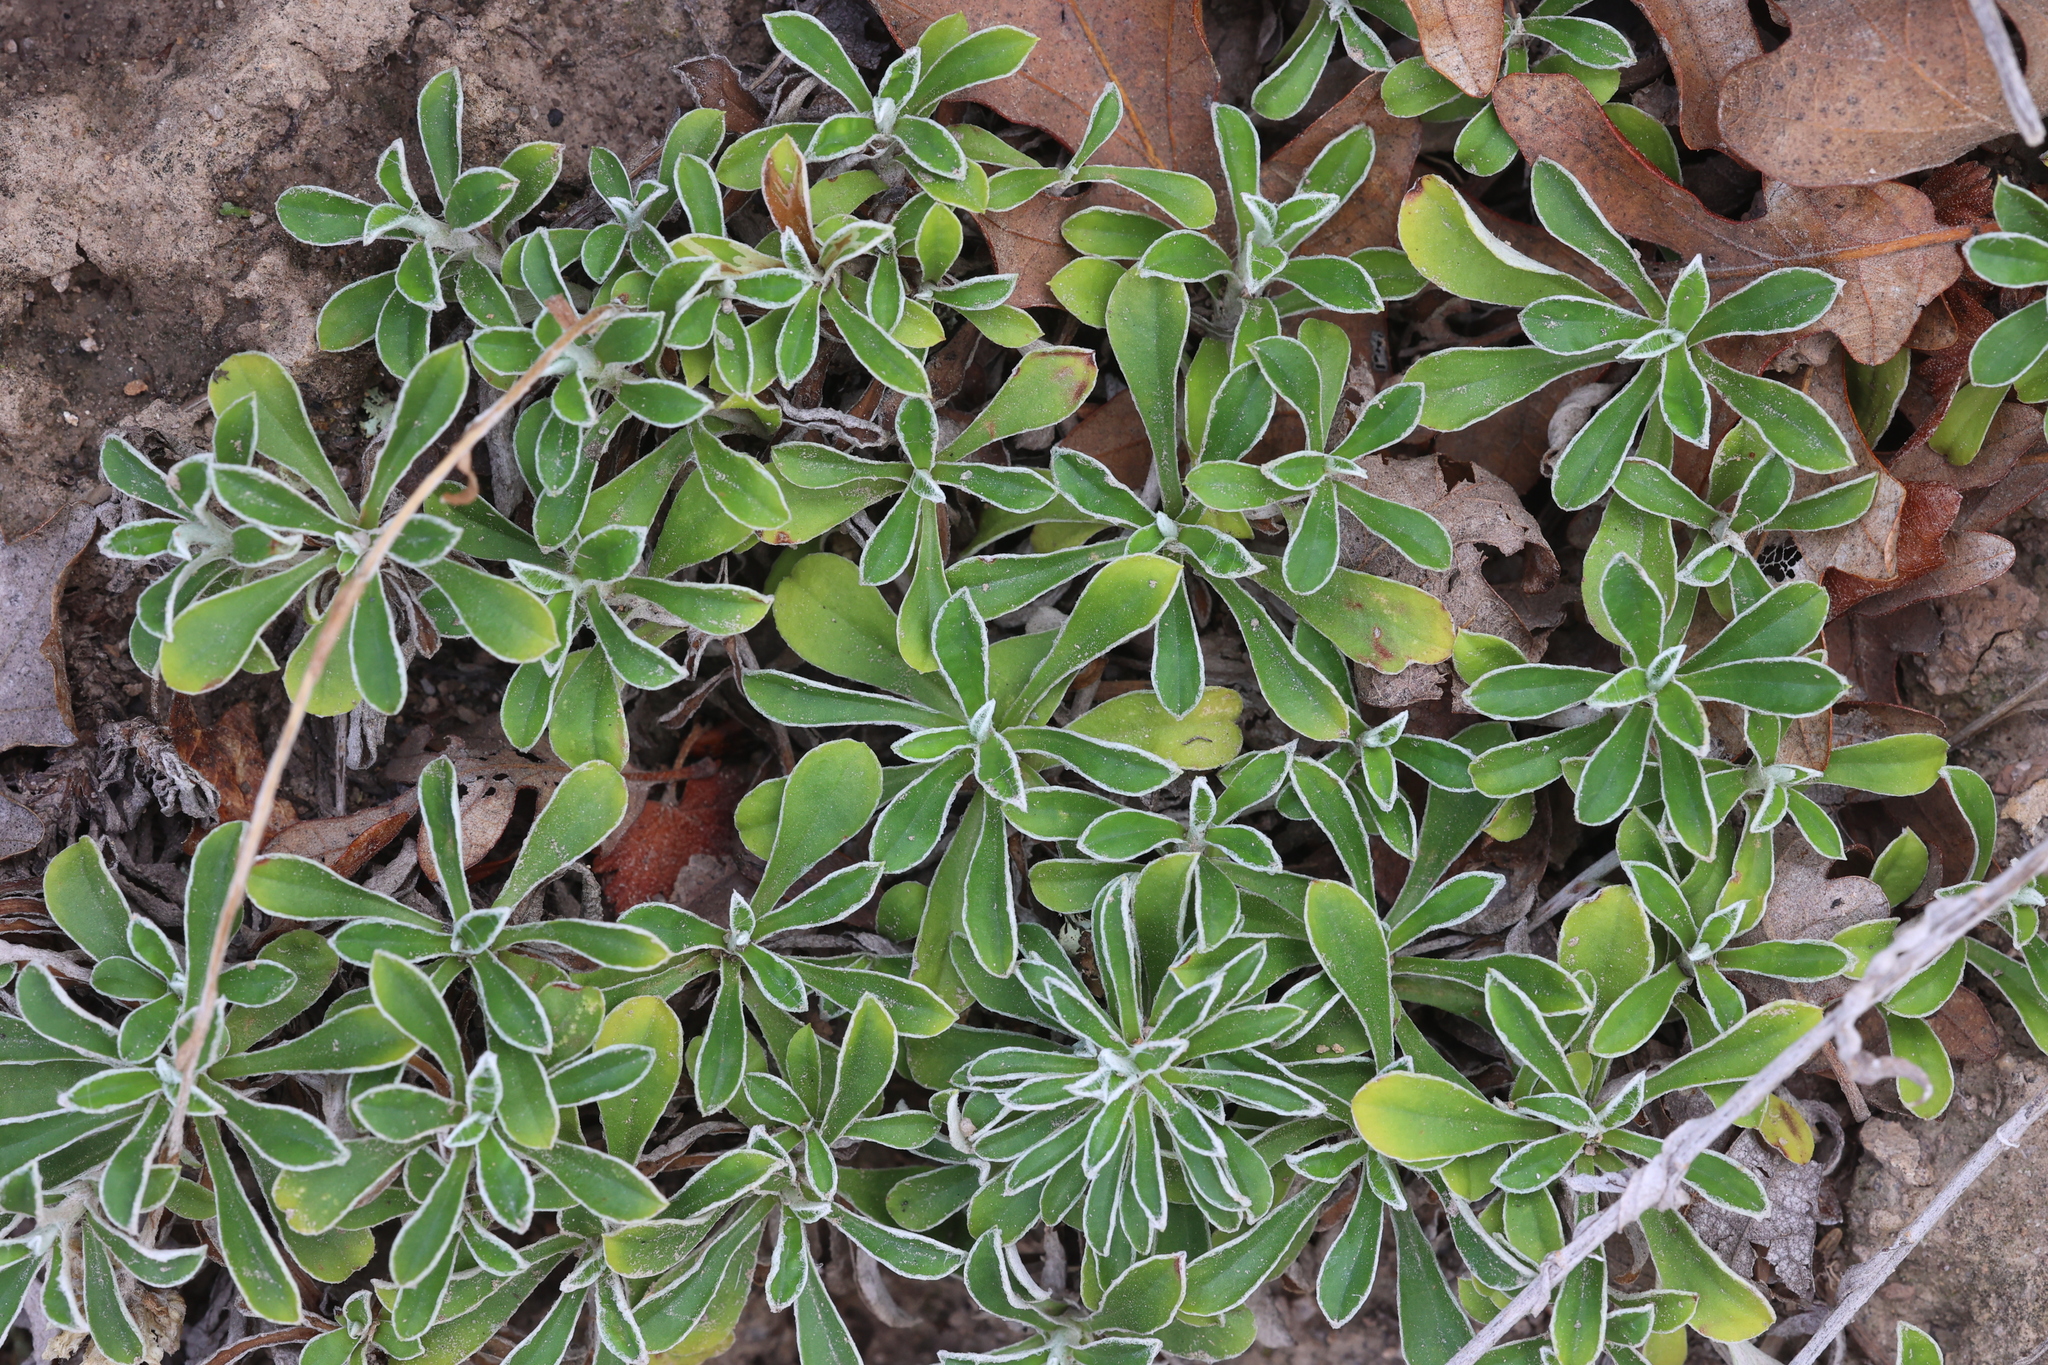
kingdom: Plantae
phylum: Tracheophyta
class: Magnoliopsida
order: Asterales
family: Asteraceae
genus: Antennaria
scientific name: Antennaria marginata
